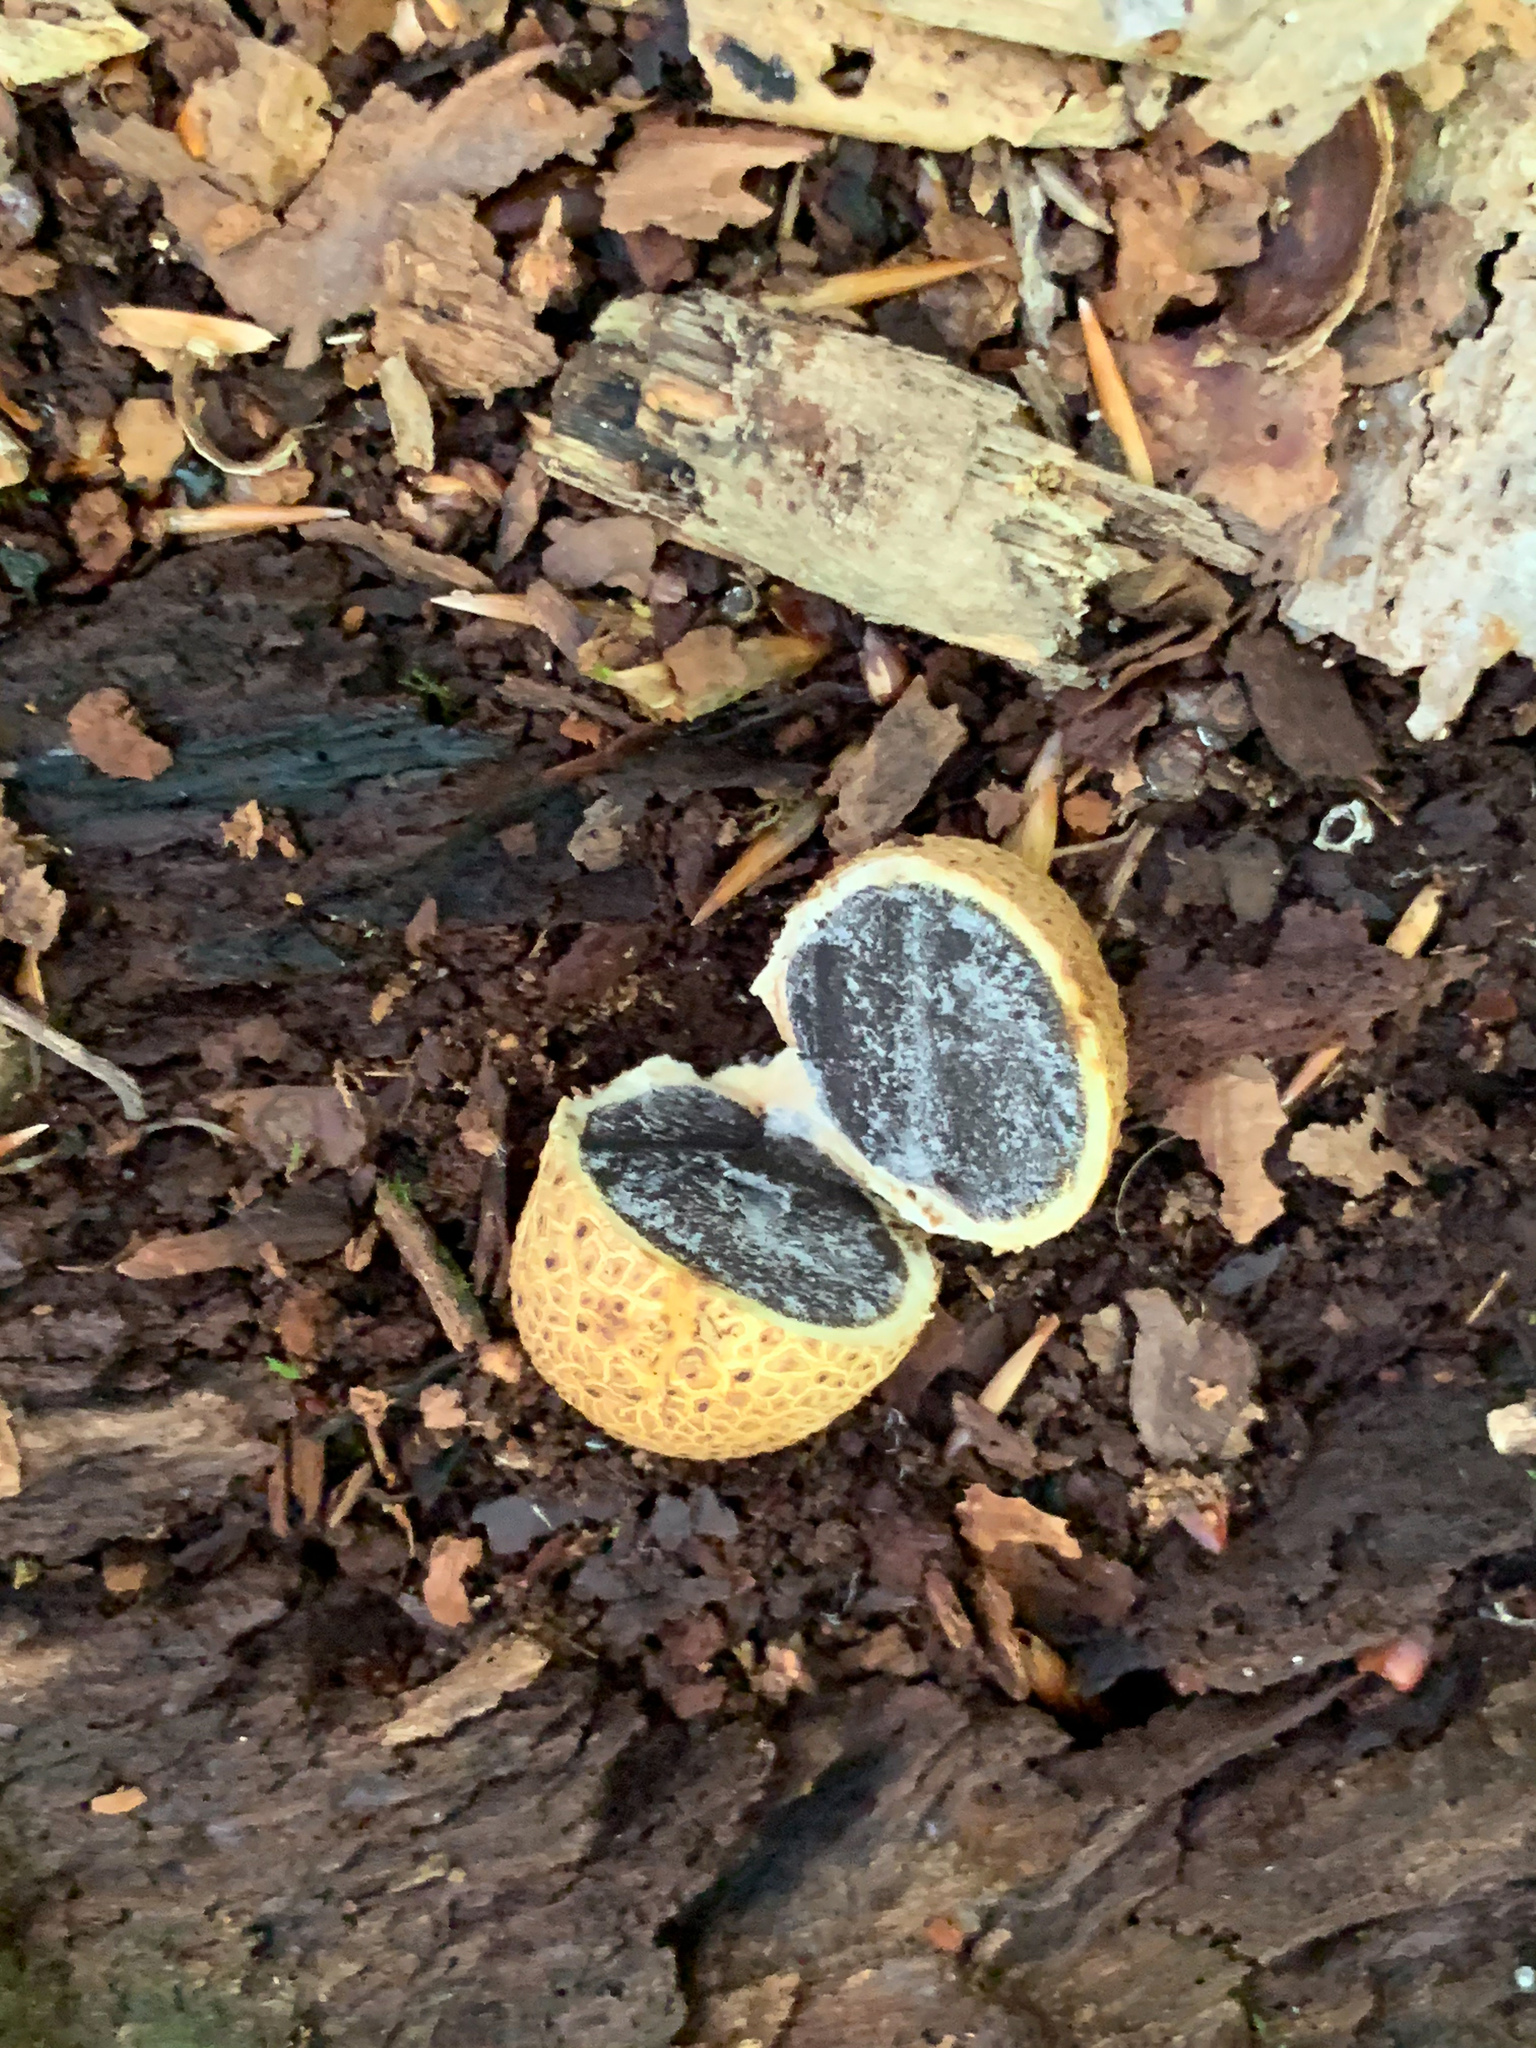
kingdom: Fungi
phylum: Basidiomycota
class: Agaricomycetes
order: Boletales
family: Sclerodermataceae
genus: Scleroderma
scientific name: Scleroderma citrinum
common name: Common earthball
